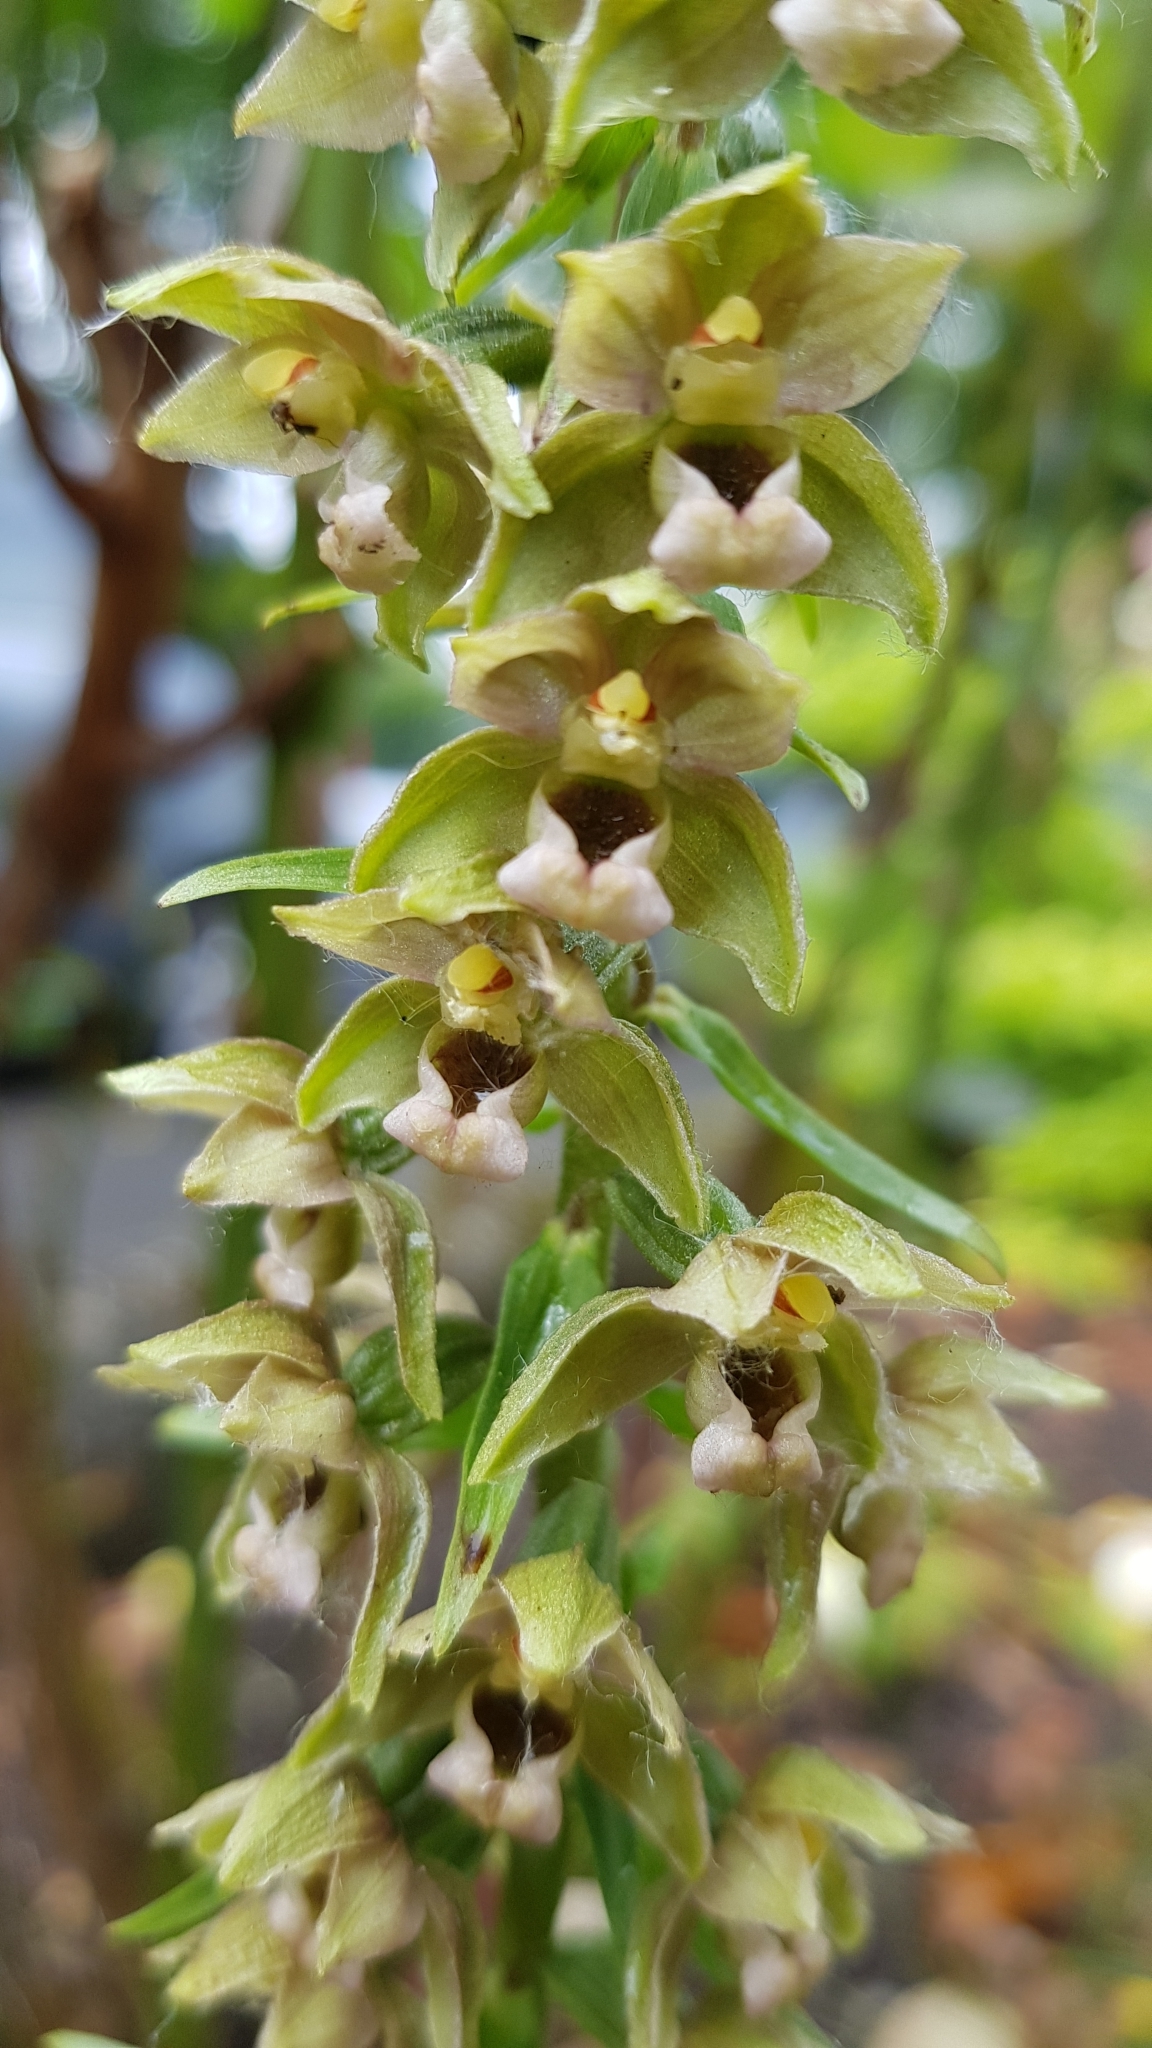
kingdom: Plantae
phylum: Tracheophyta
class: Liliopsida
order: Asparagales
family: Orchidaceae
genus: Epipactis
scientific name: Epipactis helleborine
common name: Broad-leaved helleborine
